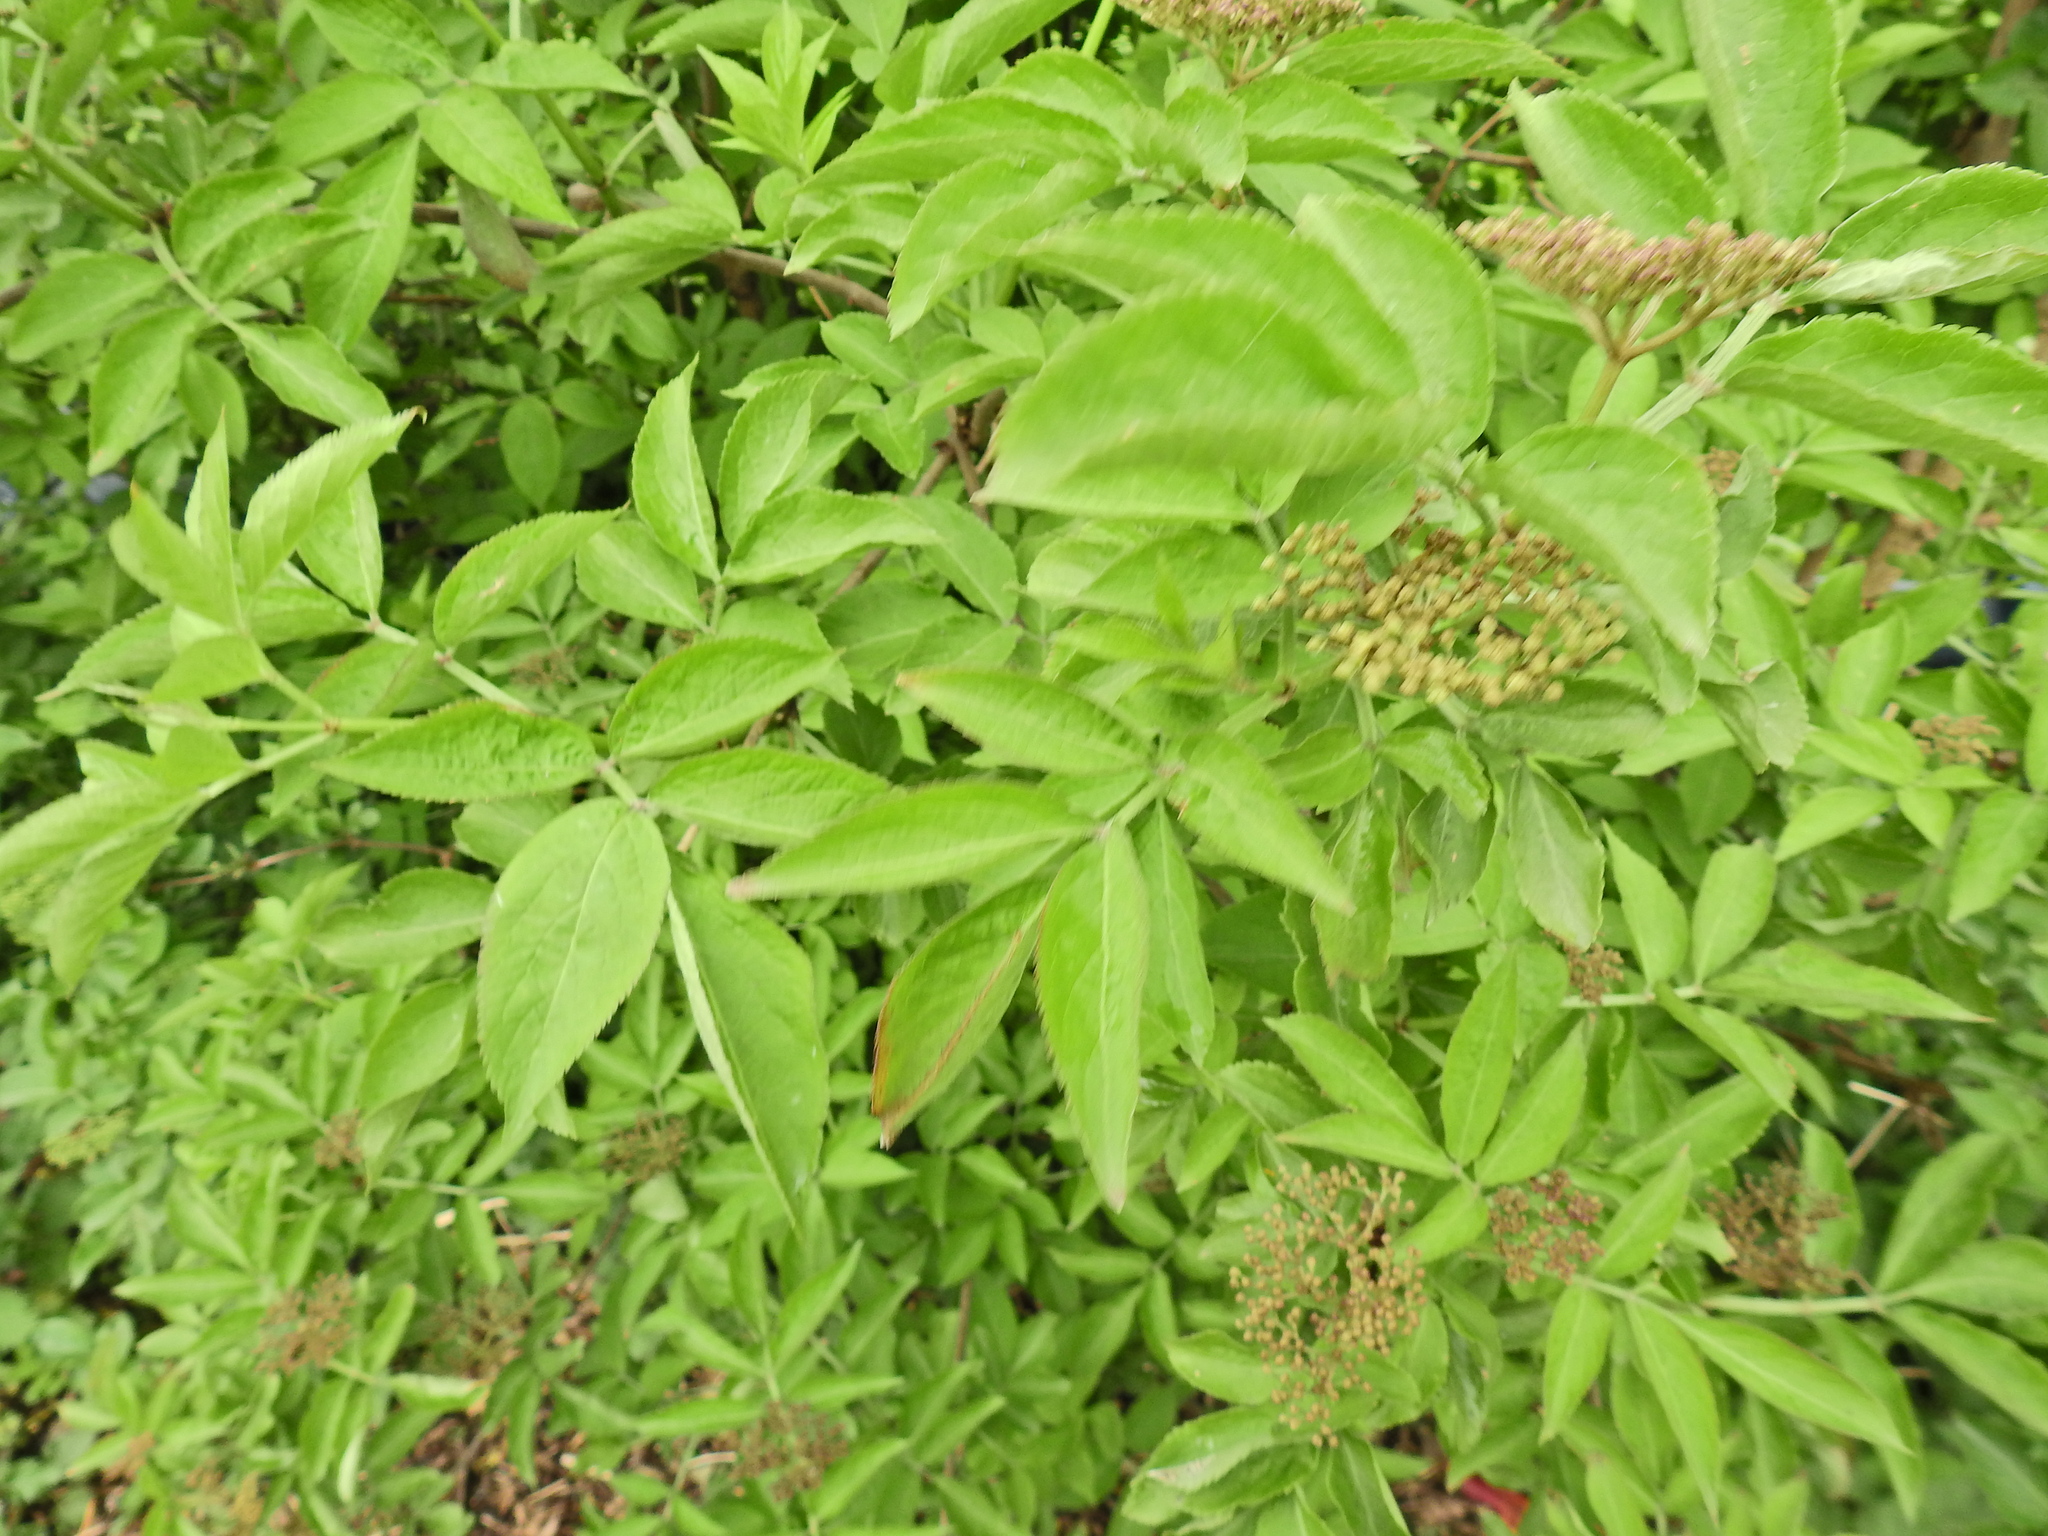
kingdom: Plantae
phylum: Tracheophyta
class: Magnoliopsida
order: Dipsacales
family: Viburnaceae
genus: Sambucus
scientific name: Sambucus nigra
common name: Elder
